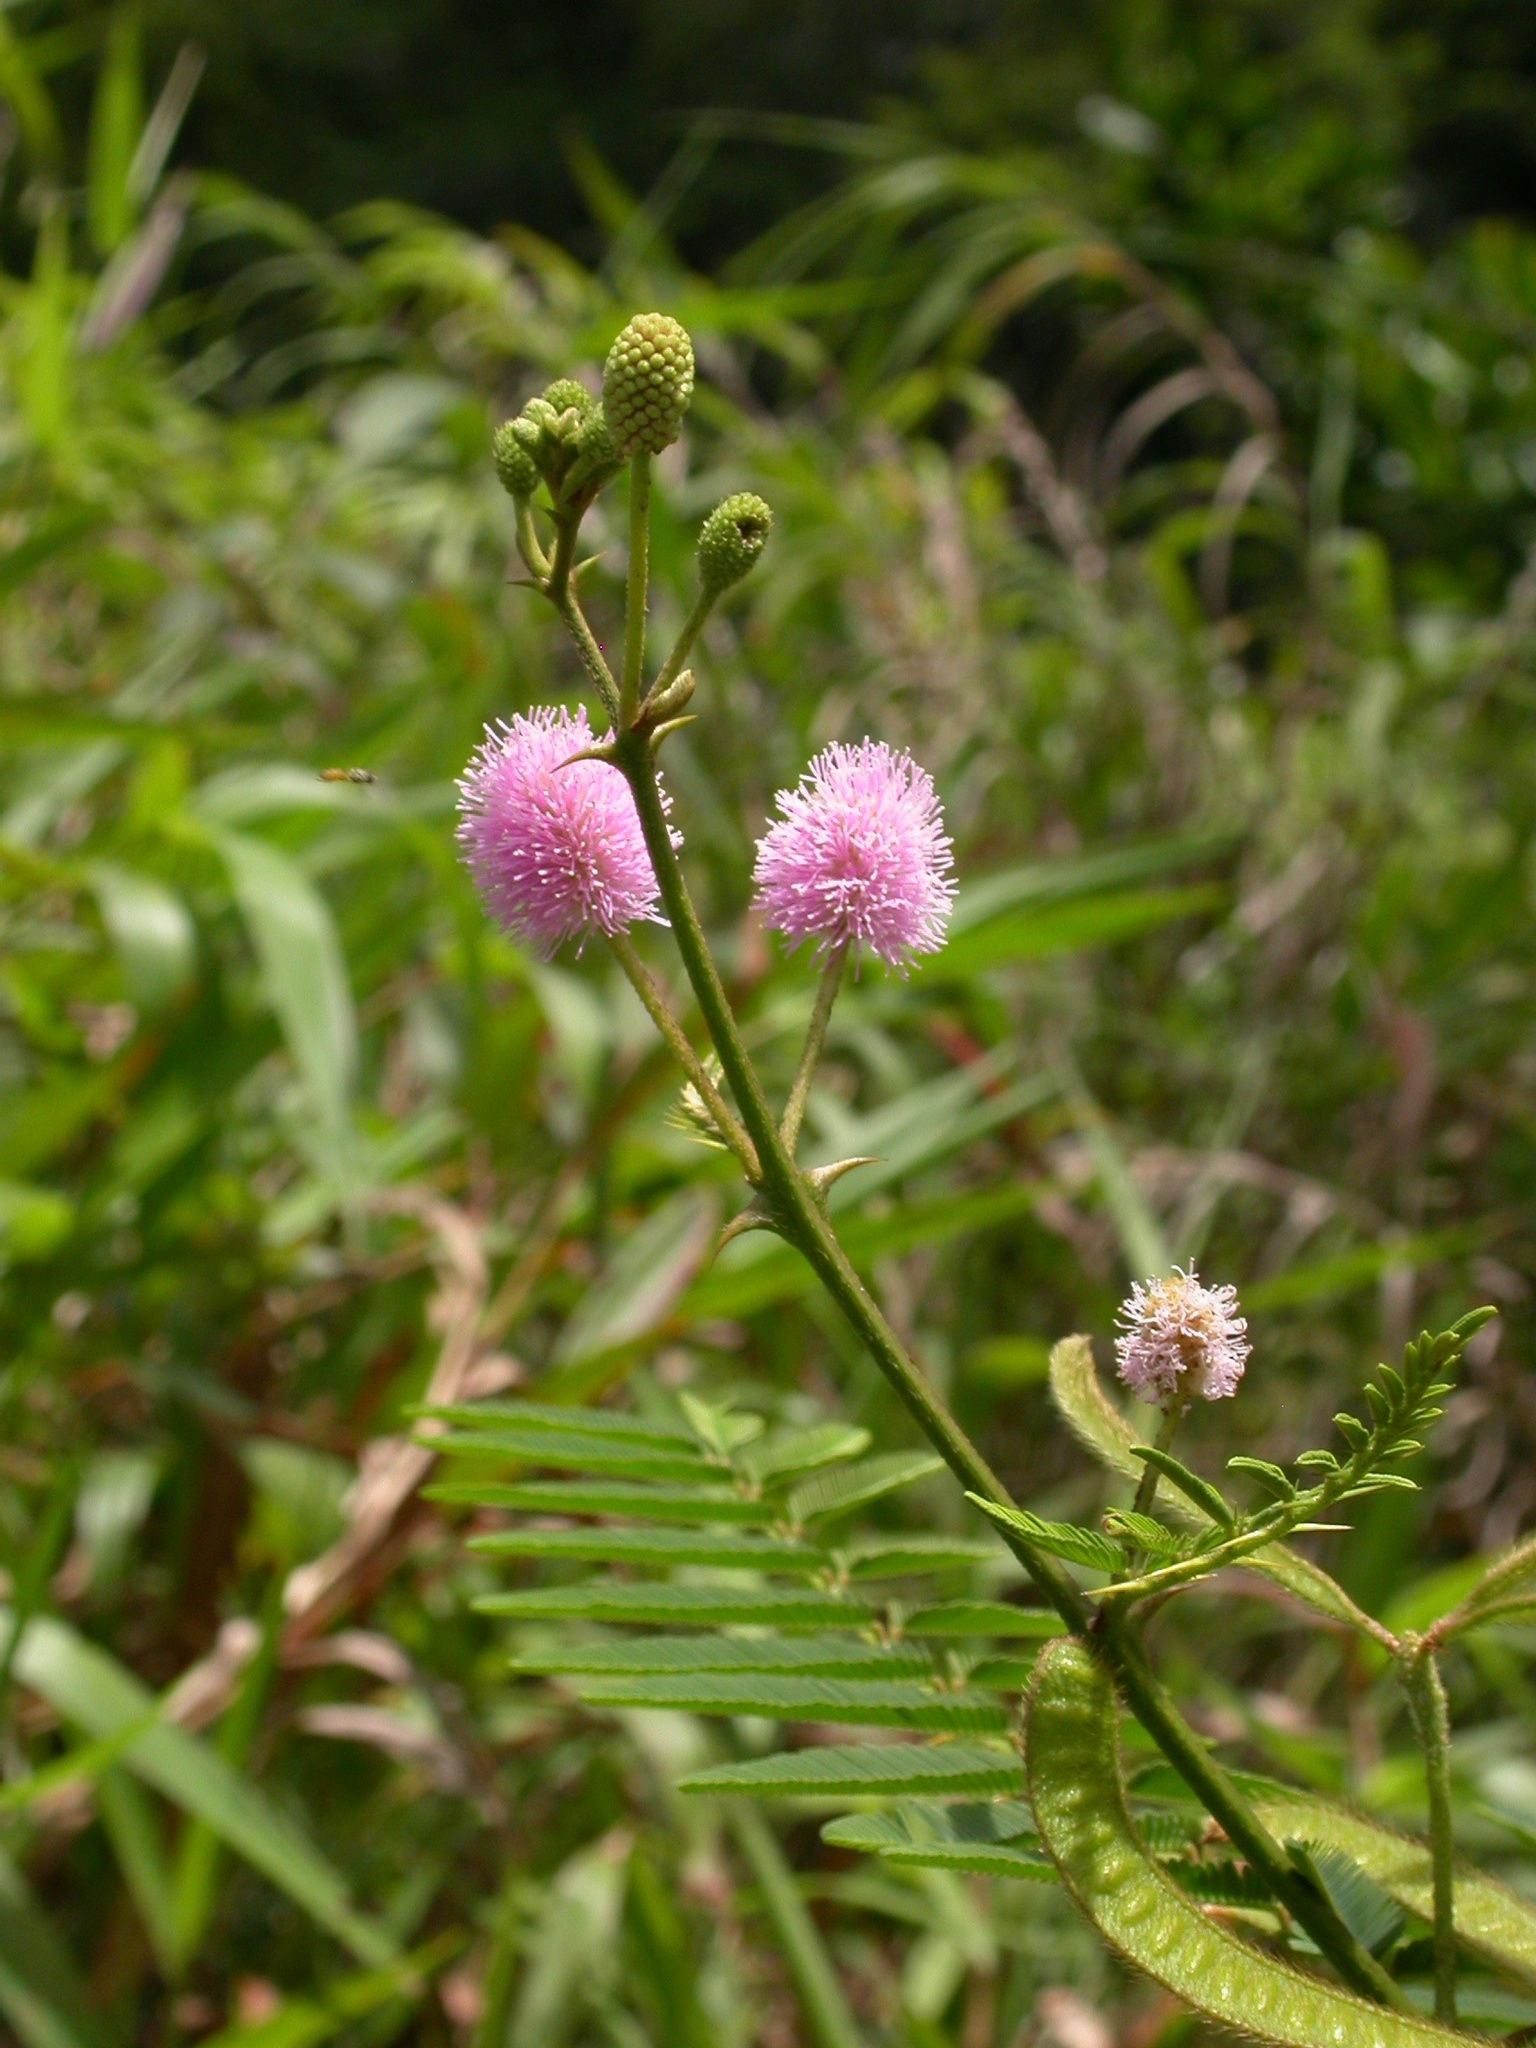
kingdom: Plantae
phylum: Tracheophyta
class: Magnoliopsida
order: Fabales
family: Fabaceae
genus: Mimosa
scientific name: Mimosa pigra
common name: Black mimosa
